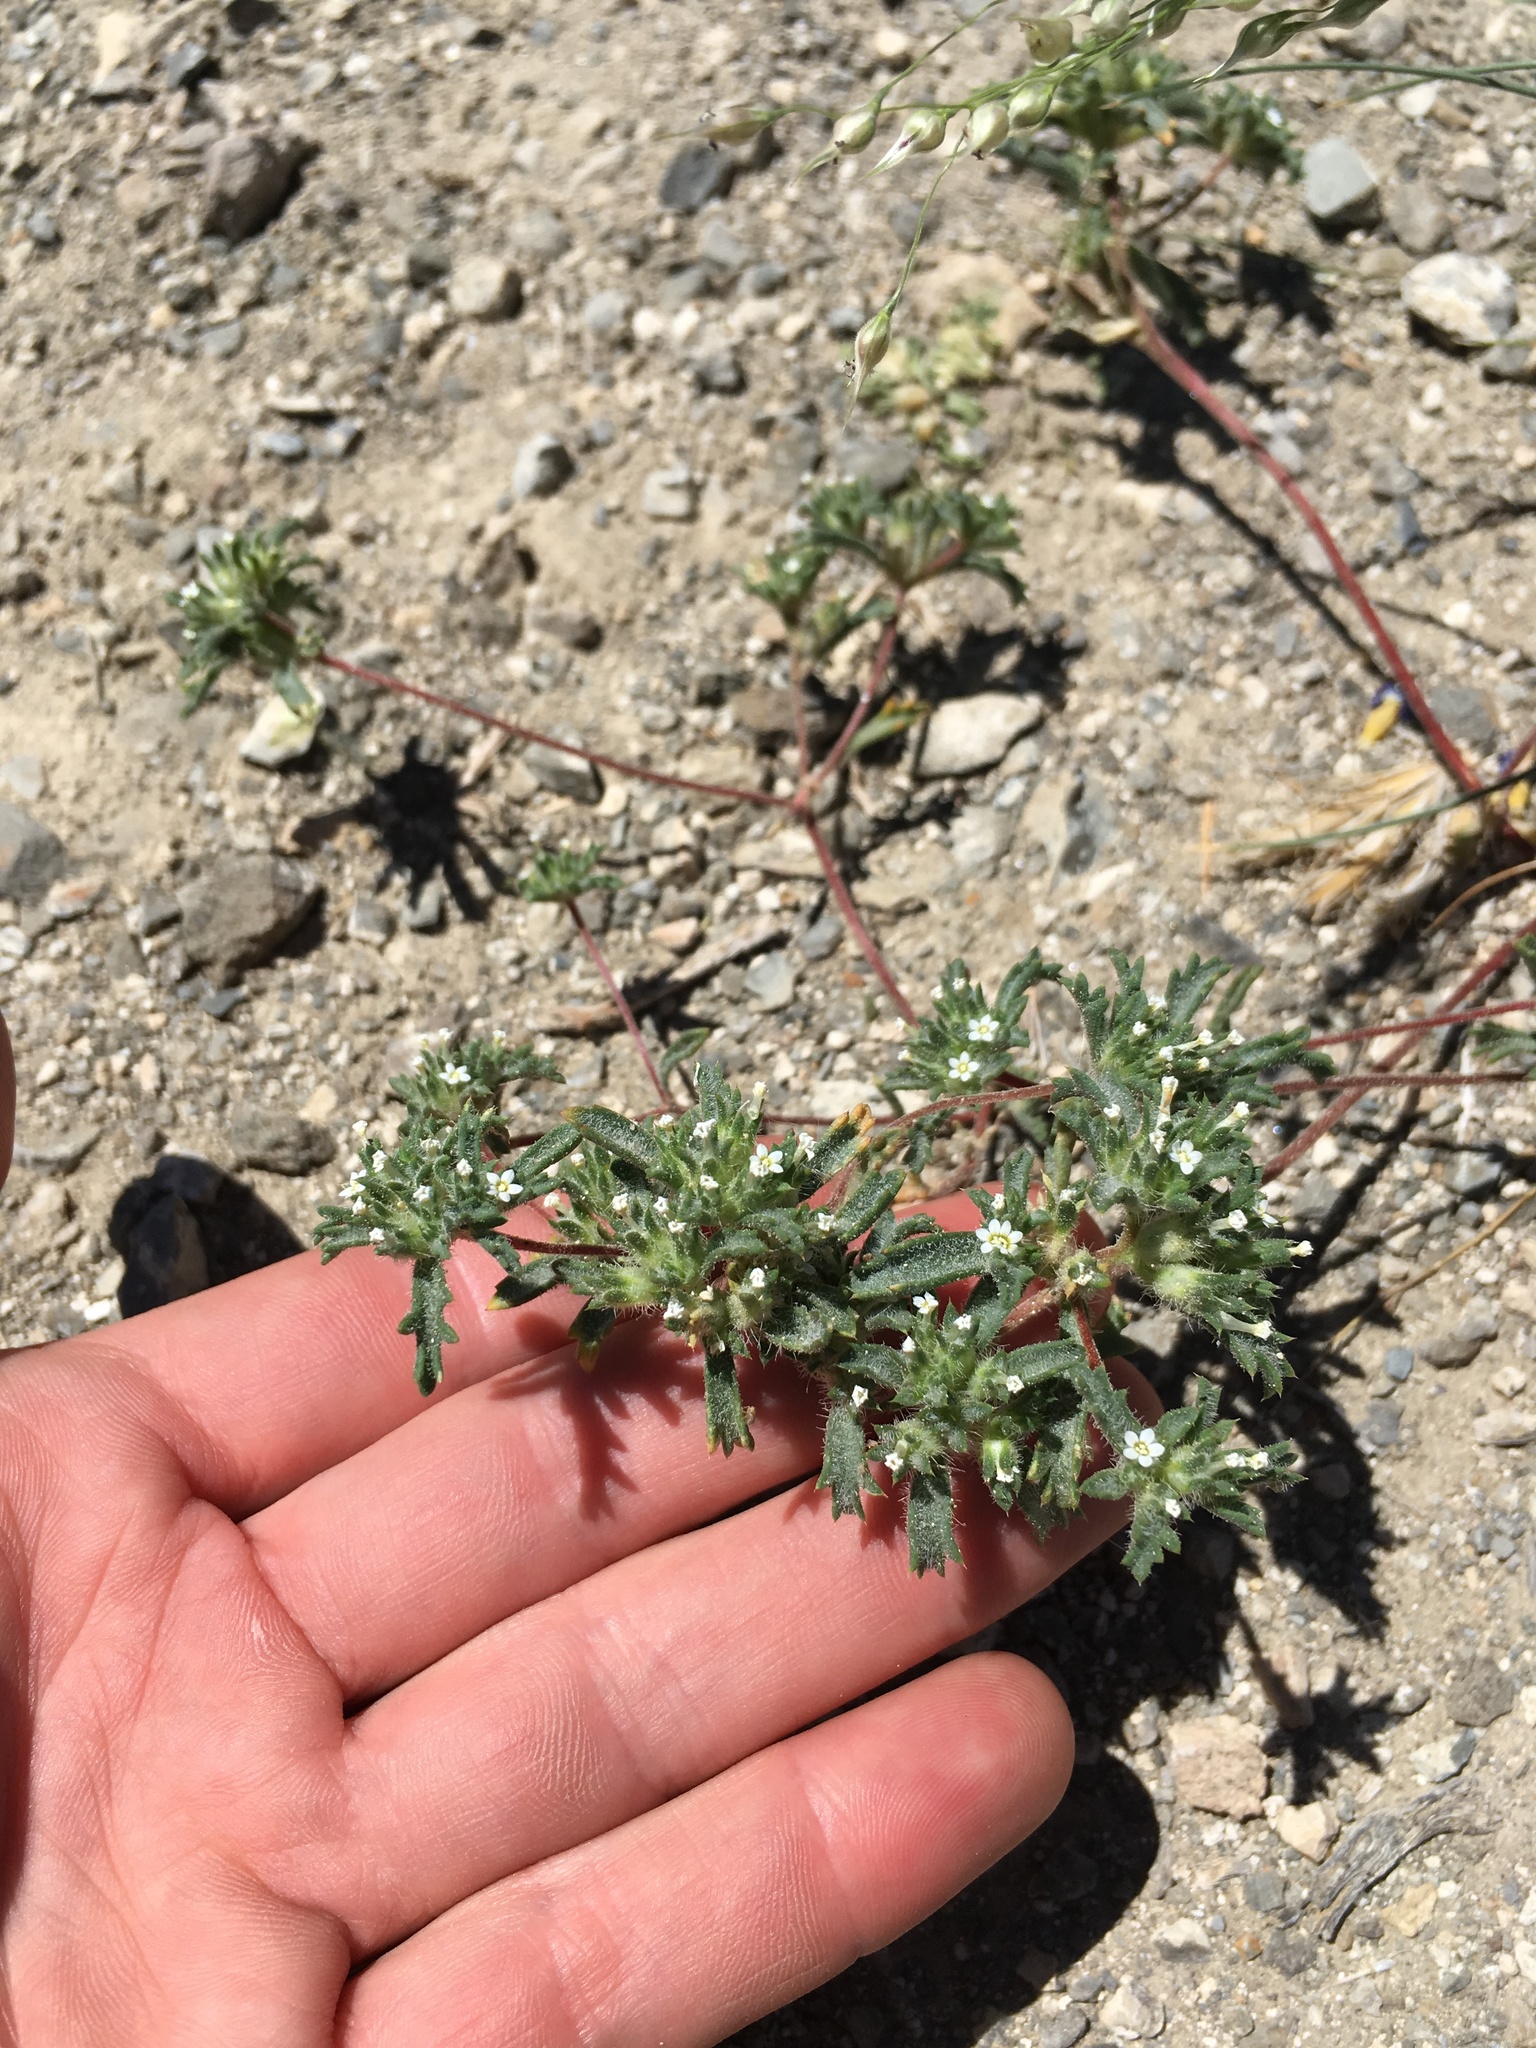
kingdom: Plantae
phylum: Tracheophyta
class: Magnoliopsida
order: Ericales
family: Polemoniaceae
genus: Ipomopsis
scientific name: Ipomopsis polycladon
